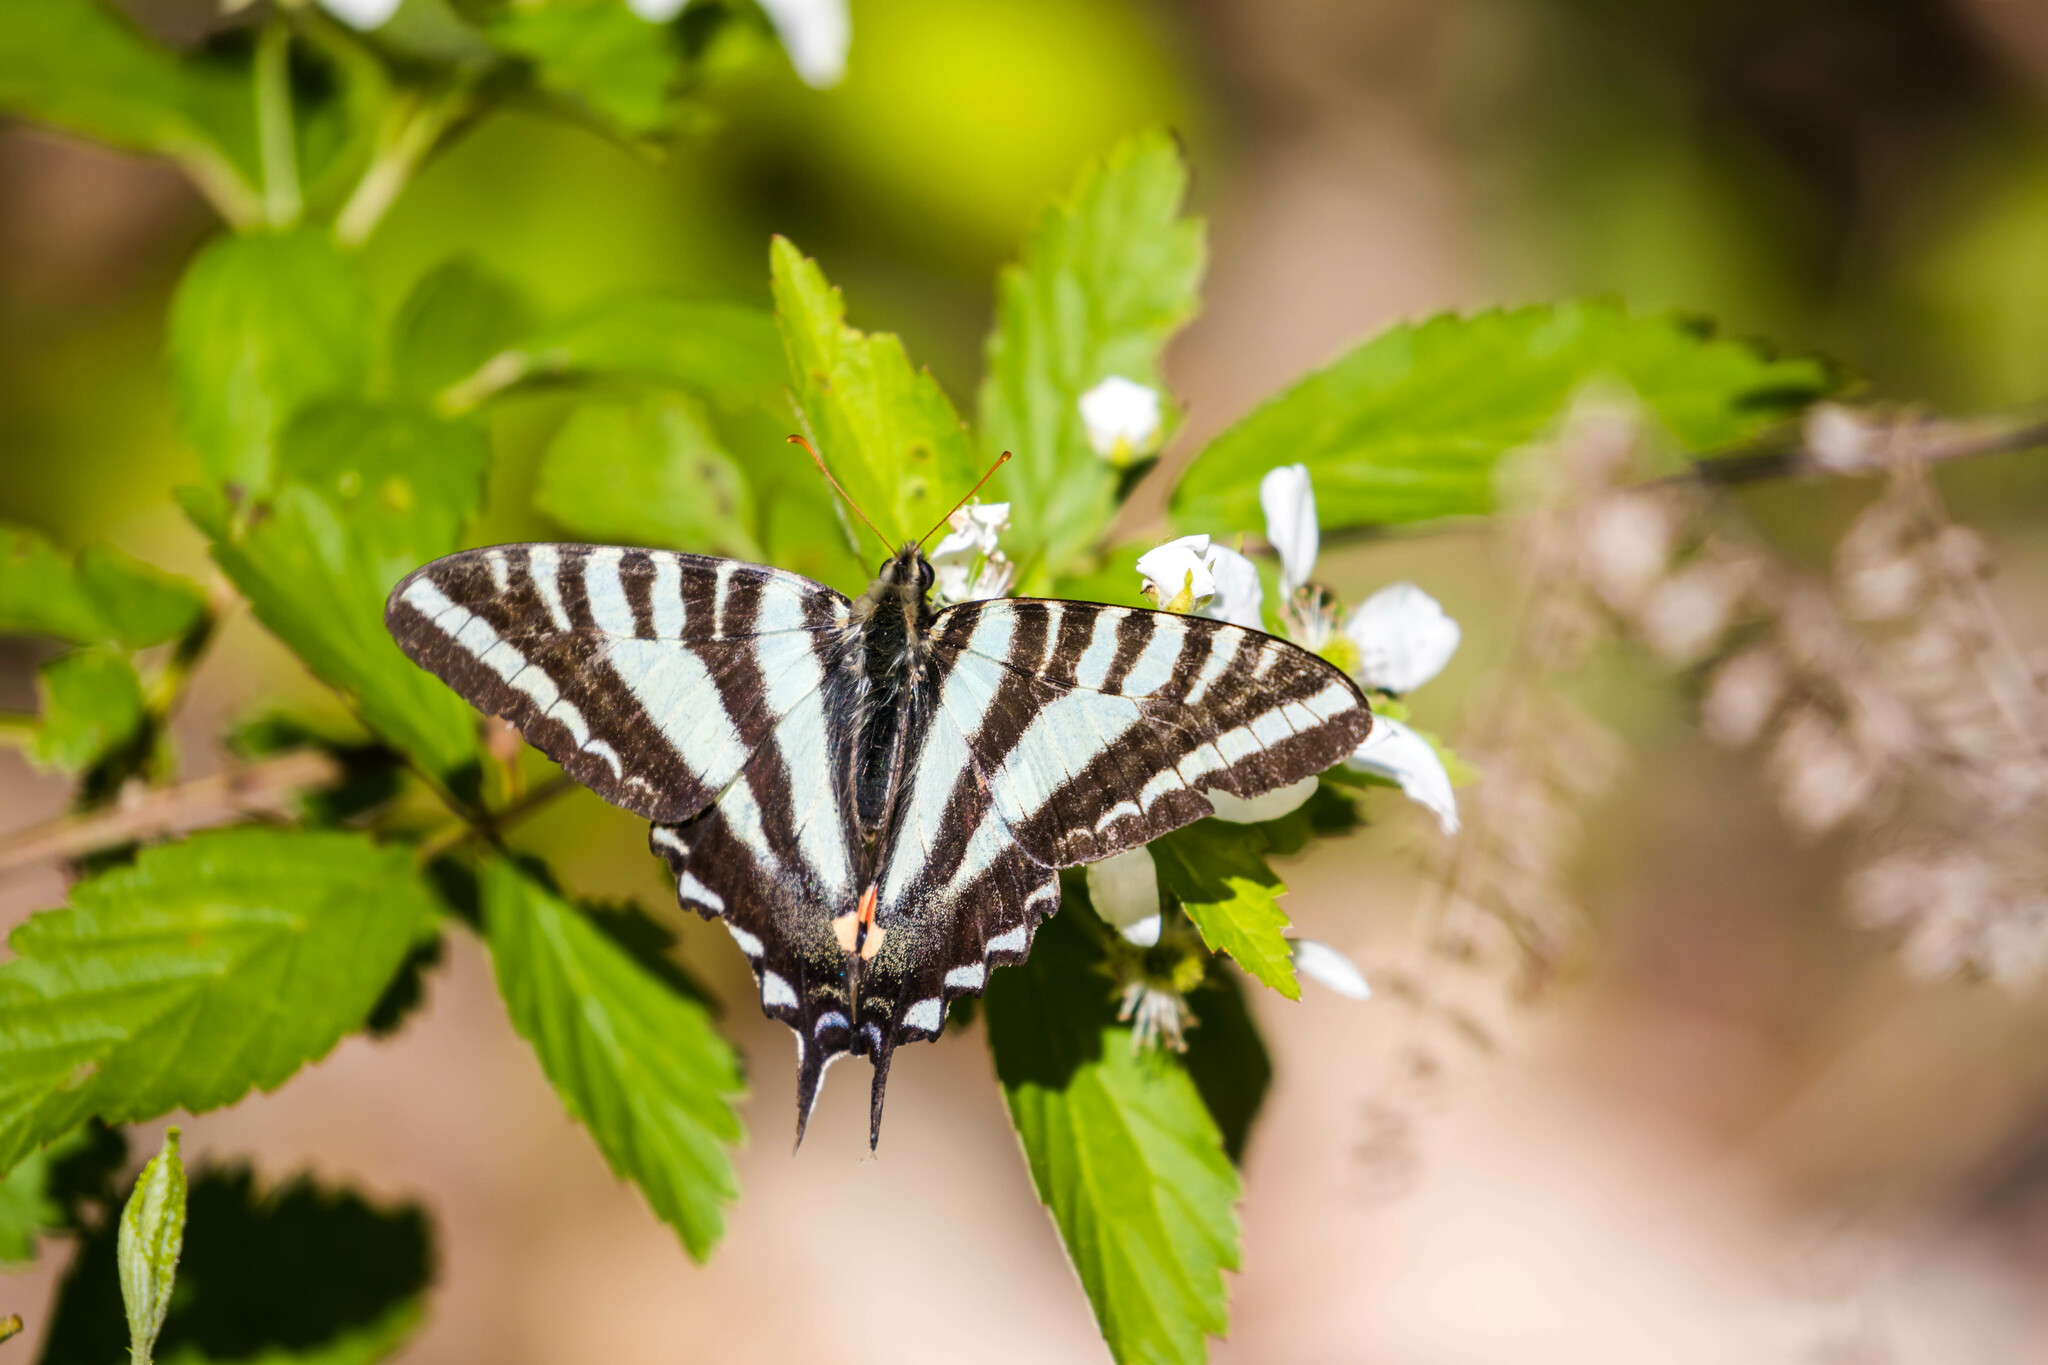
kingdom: Animalia
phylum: Arthropoda
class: Insecta
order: Lepidoptera
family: Papilionidae
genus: Protographium
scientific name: Protographium marcellus
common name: Zebra swallowtail
